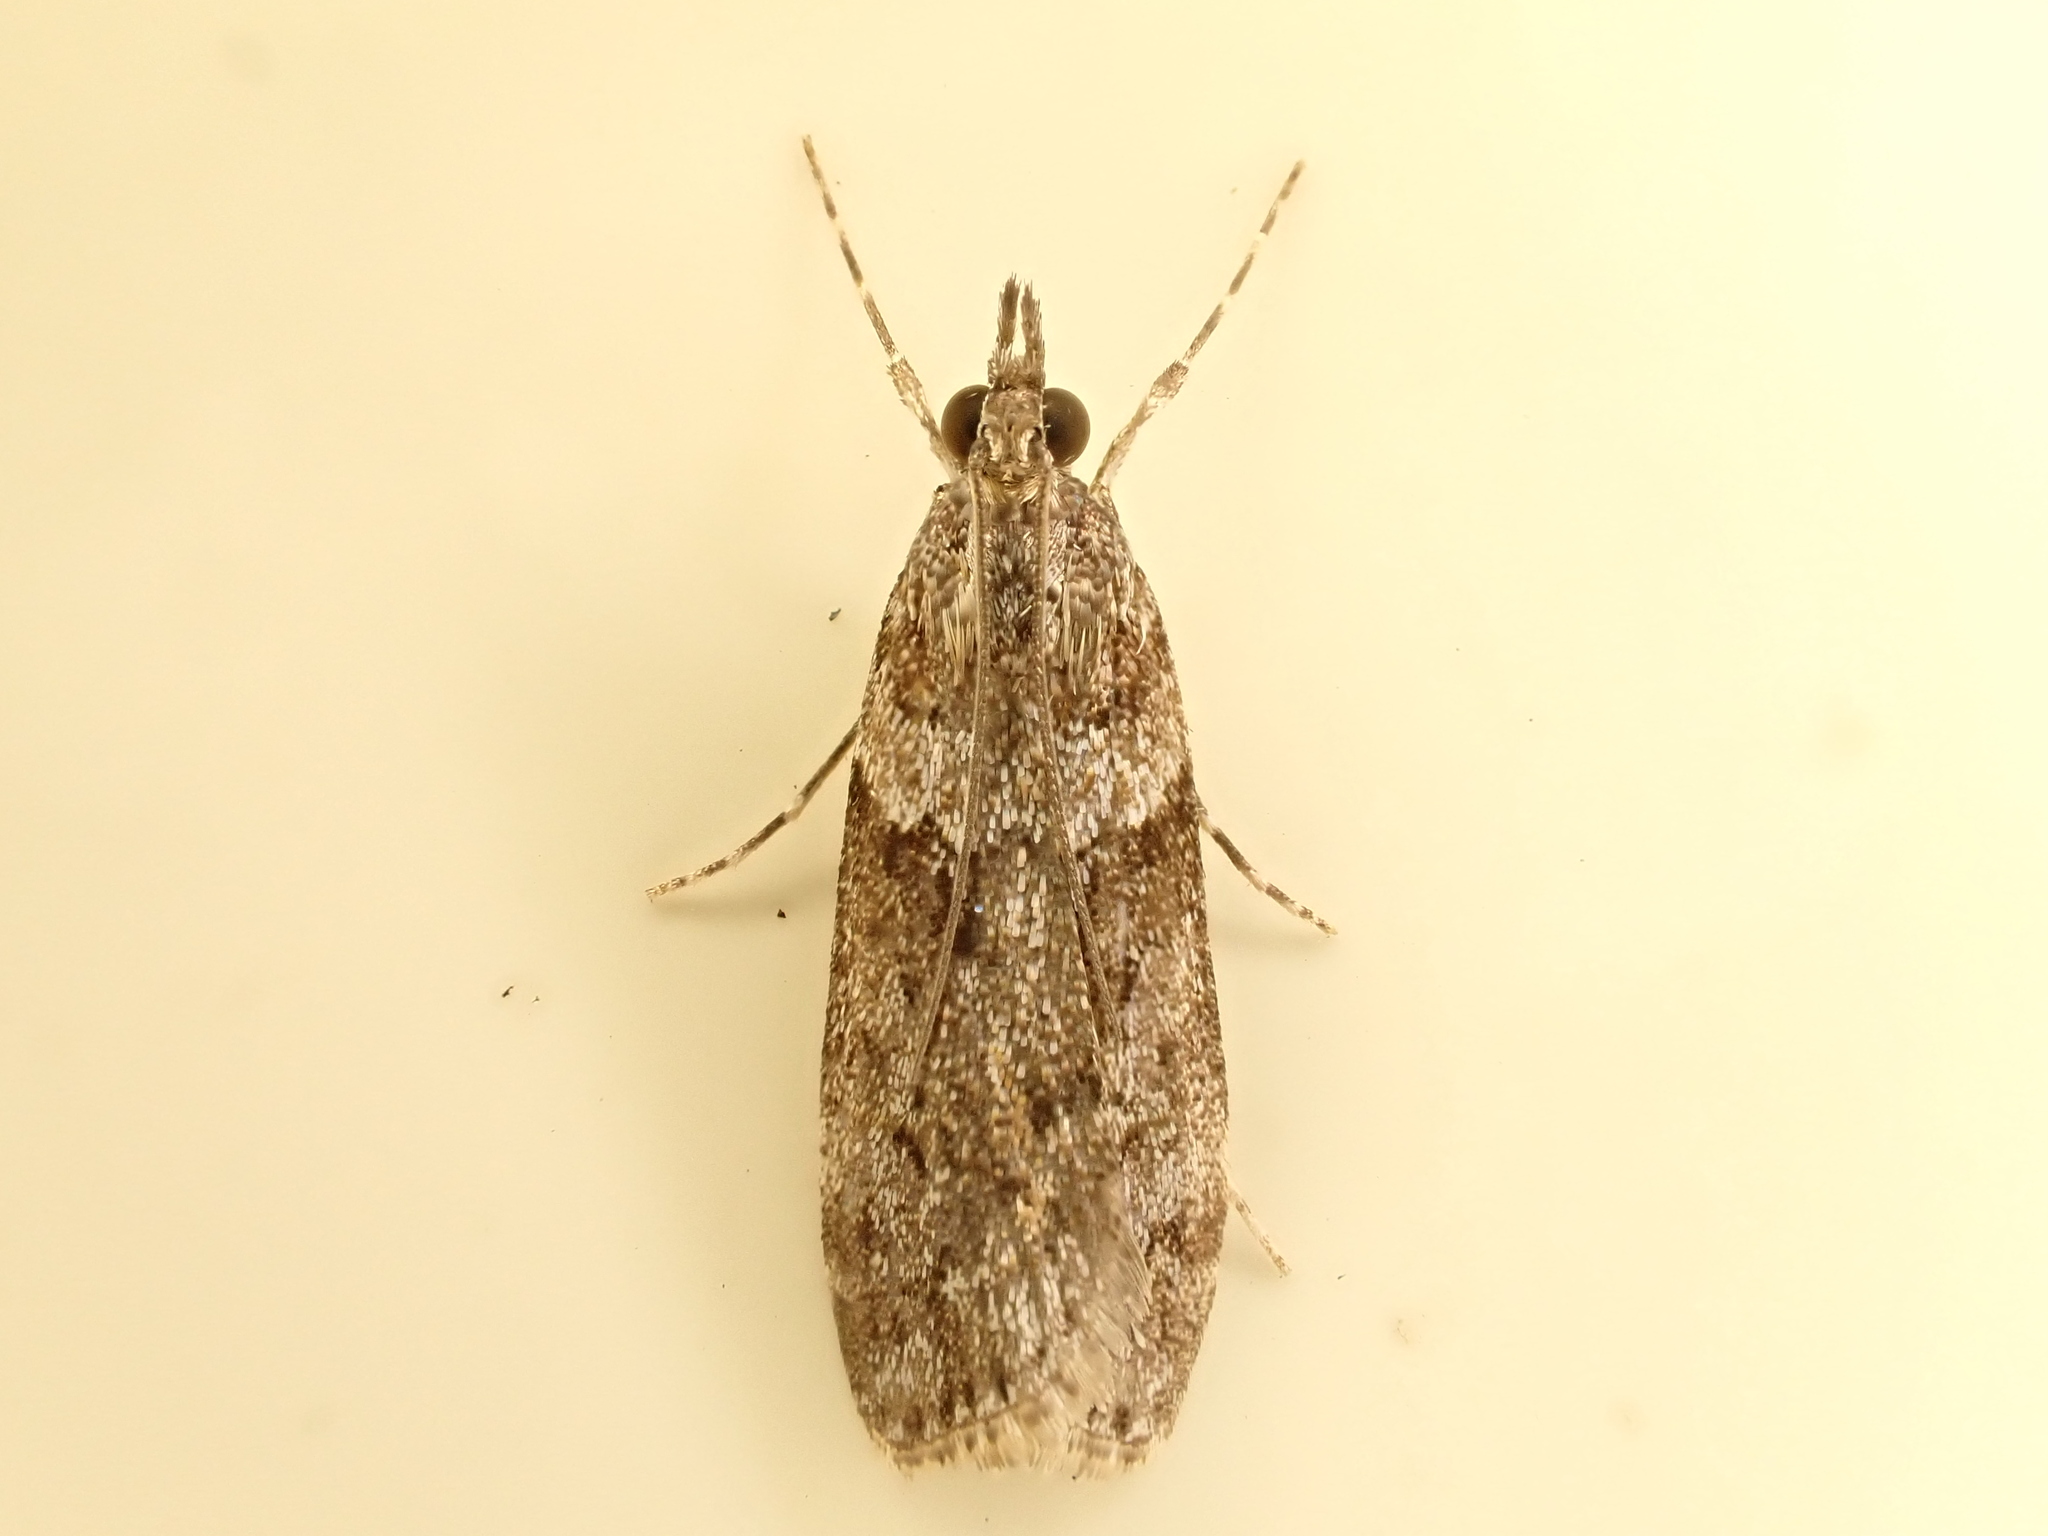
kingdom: Animalia
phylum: Arthropoda
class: Insecta
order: Lepidoptera
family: Crambidae
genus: Eudonia
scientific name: Eudonia submarginalis
